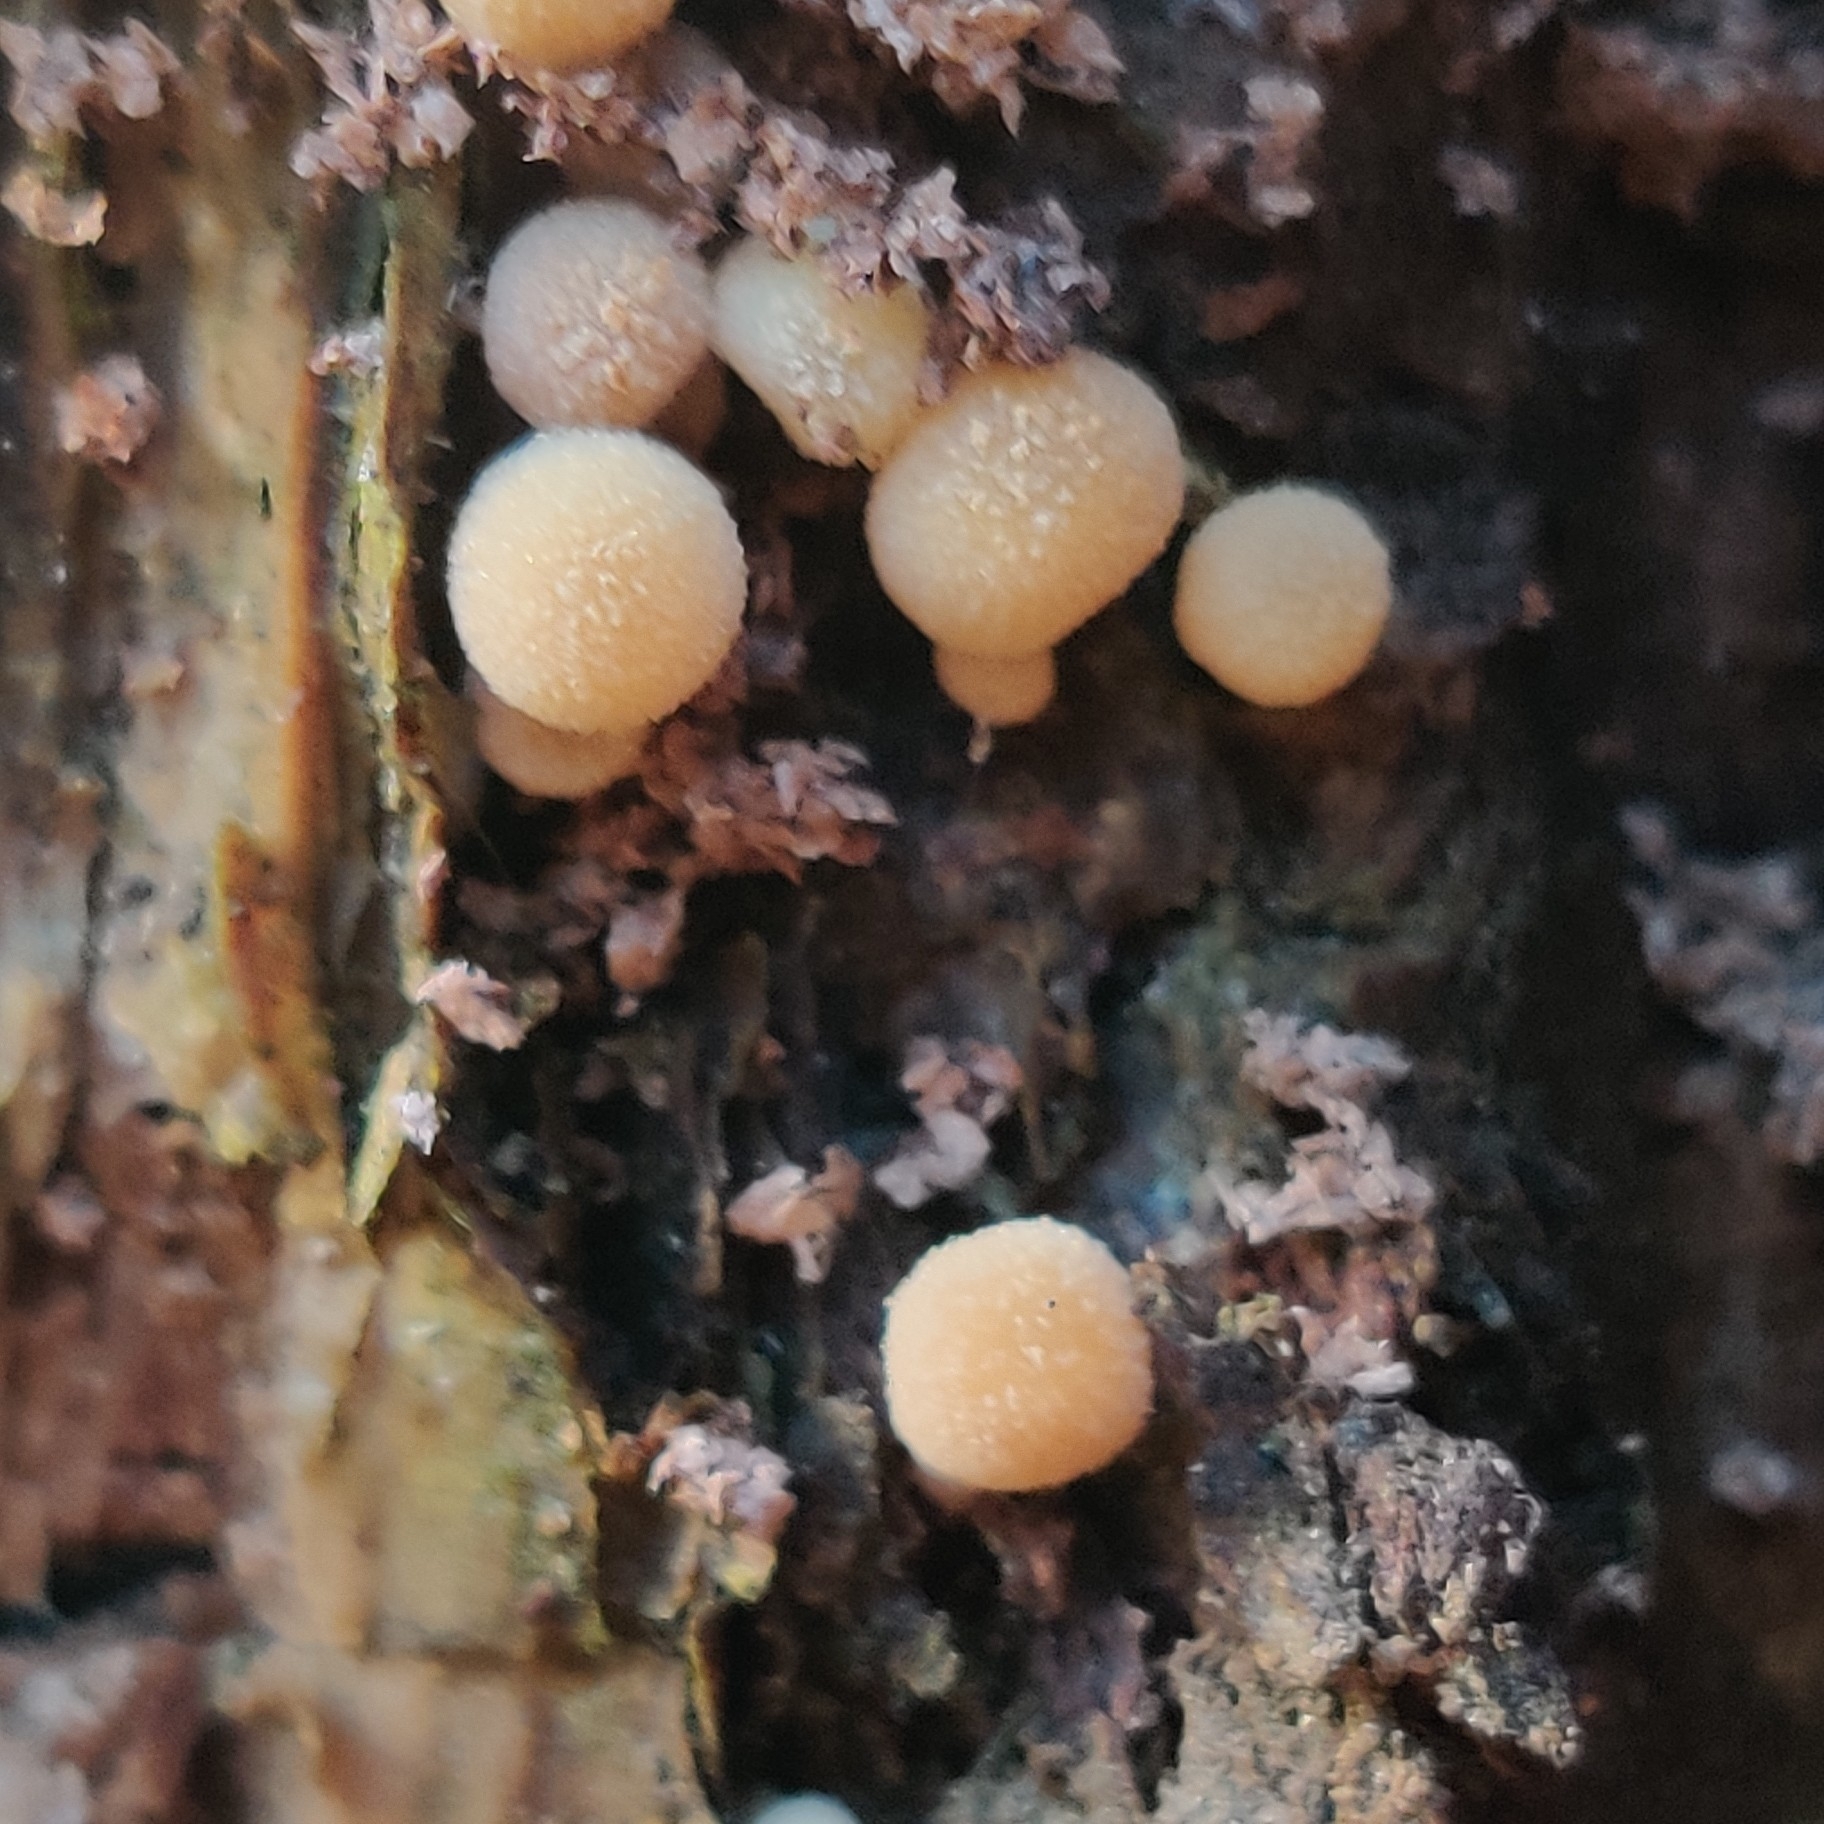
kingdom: Fungi
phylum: Basidiomycota
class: Agaricomycetes
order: Agaricales
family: Psathyrellaceae
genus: Coprinellus
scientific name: Coprinellus micaceus
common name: Glistening ink-cap
